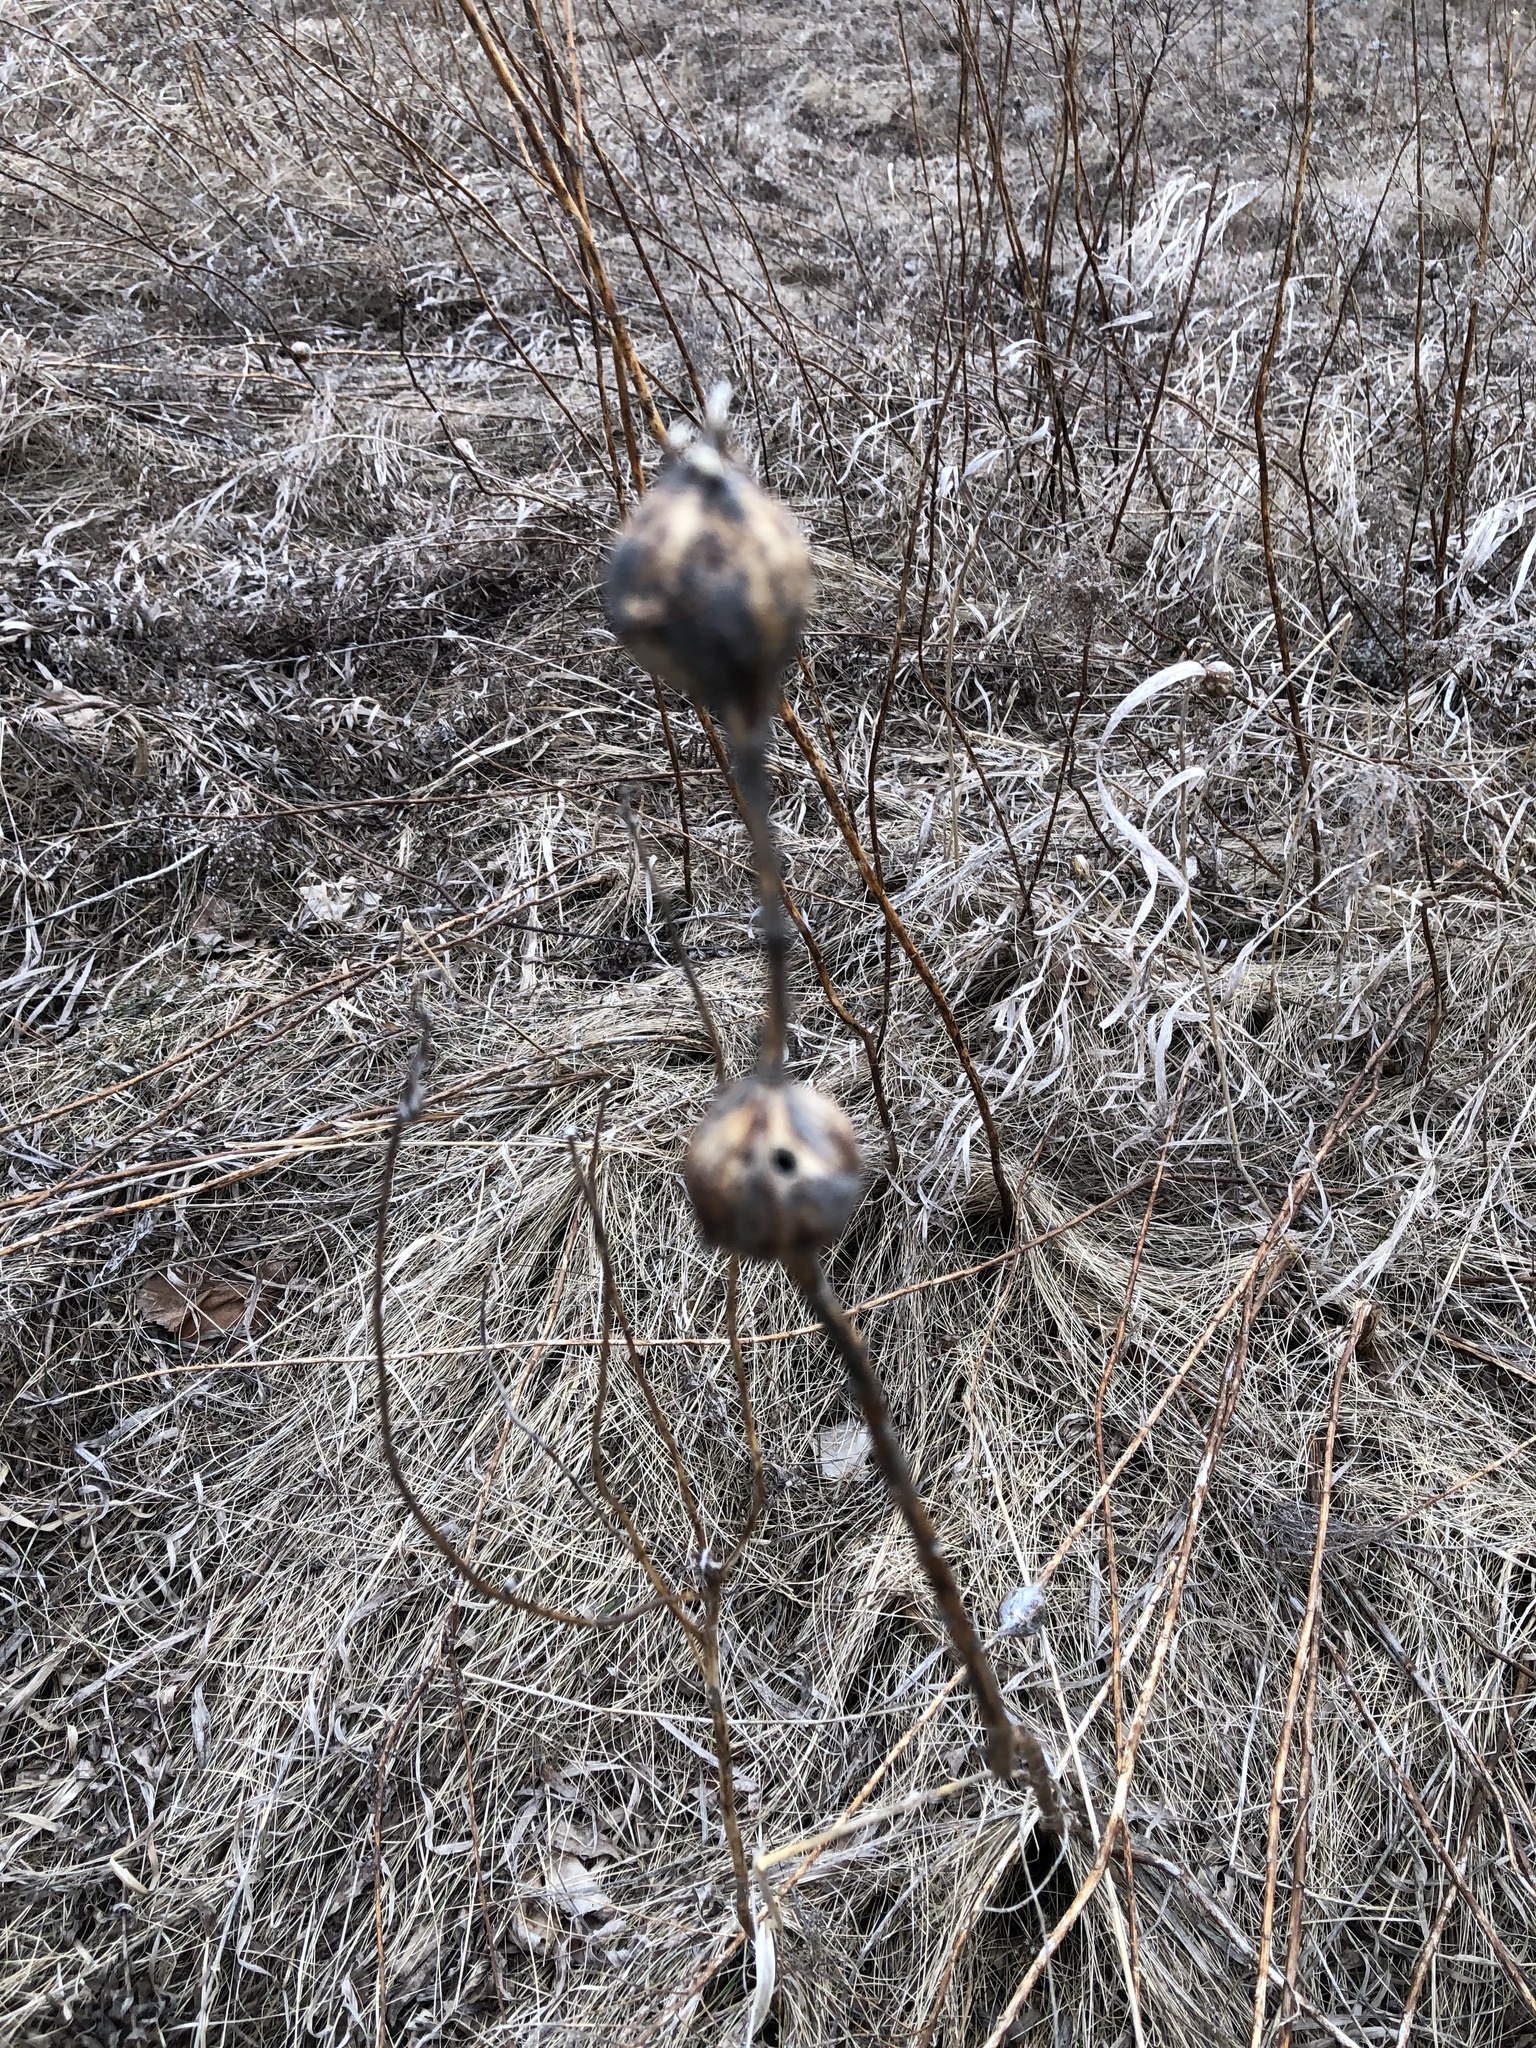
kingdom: Animalia
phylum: Arthropoda
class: Insecta
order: Diptera
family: Tephritidae
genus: Eurosta
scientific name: Eurosta solidaginis
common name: Goldenrod gall fly
